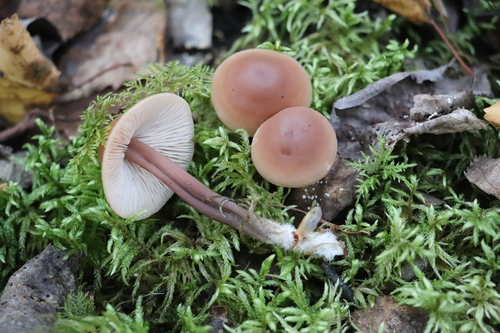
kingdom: Fungi
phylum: Basidiomycota
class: Agaricomycetes
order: Agaricales
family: Omphalotaceae
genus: Collybiopsis
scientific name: Collybiopsis
